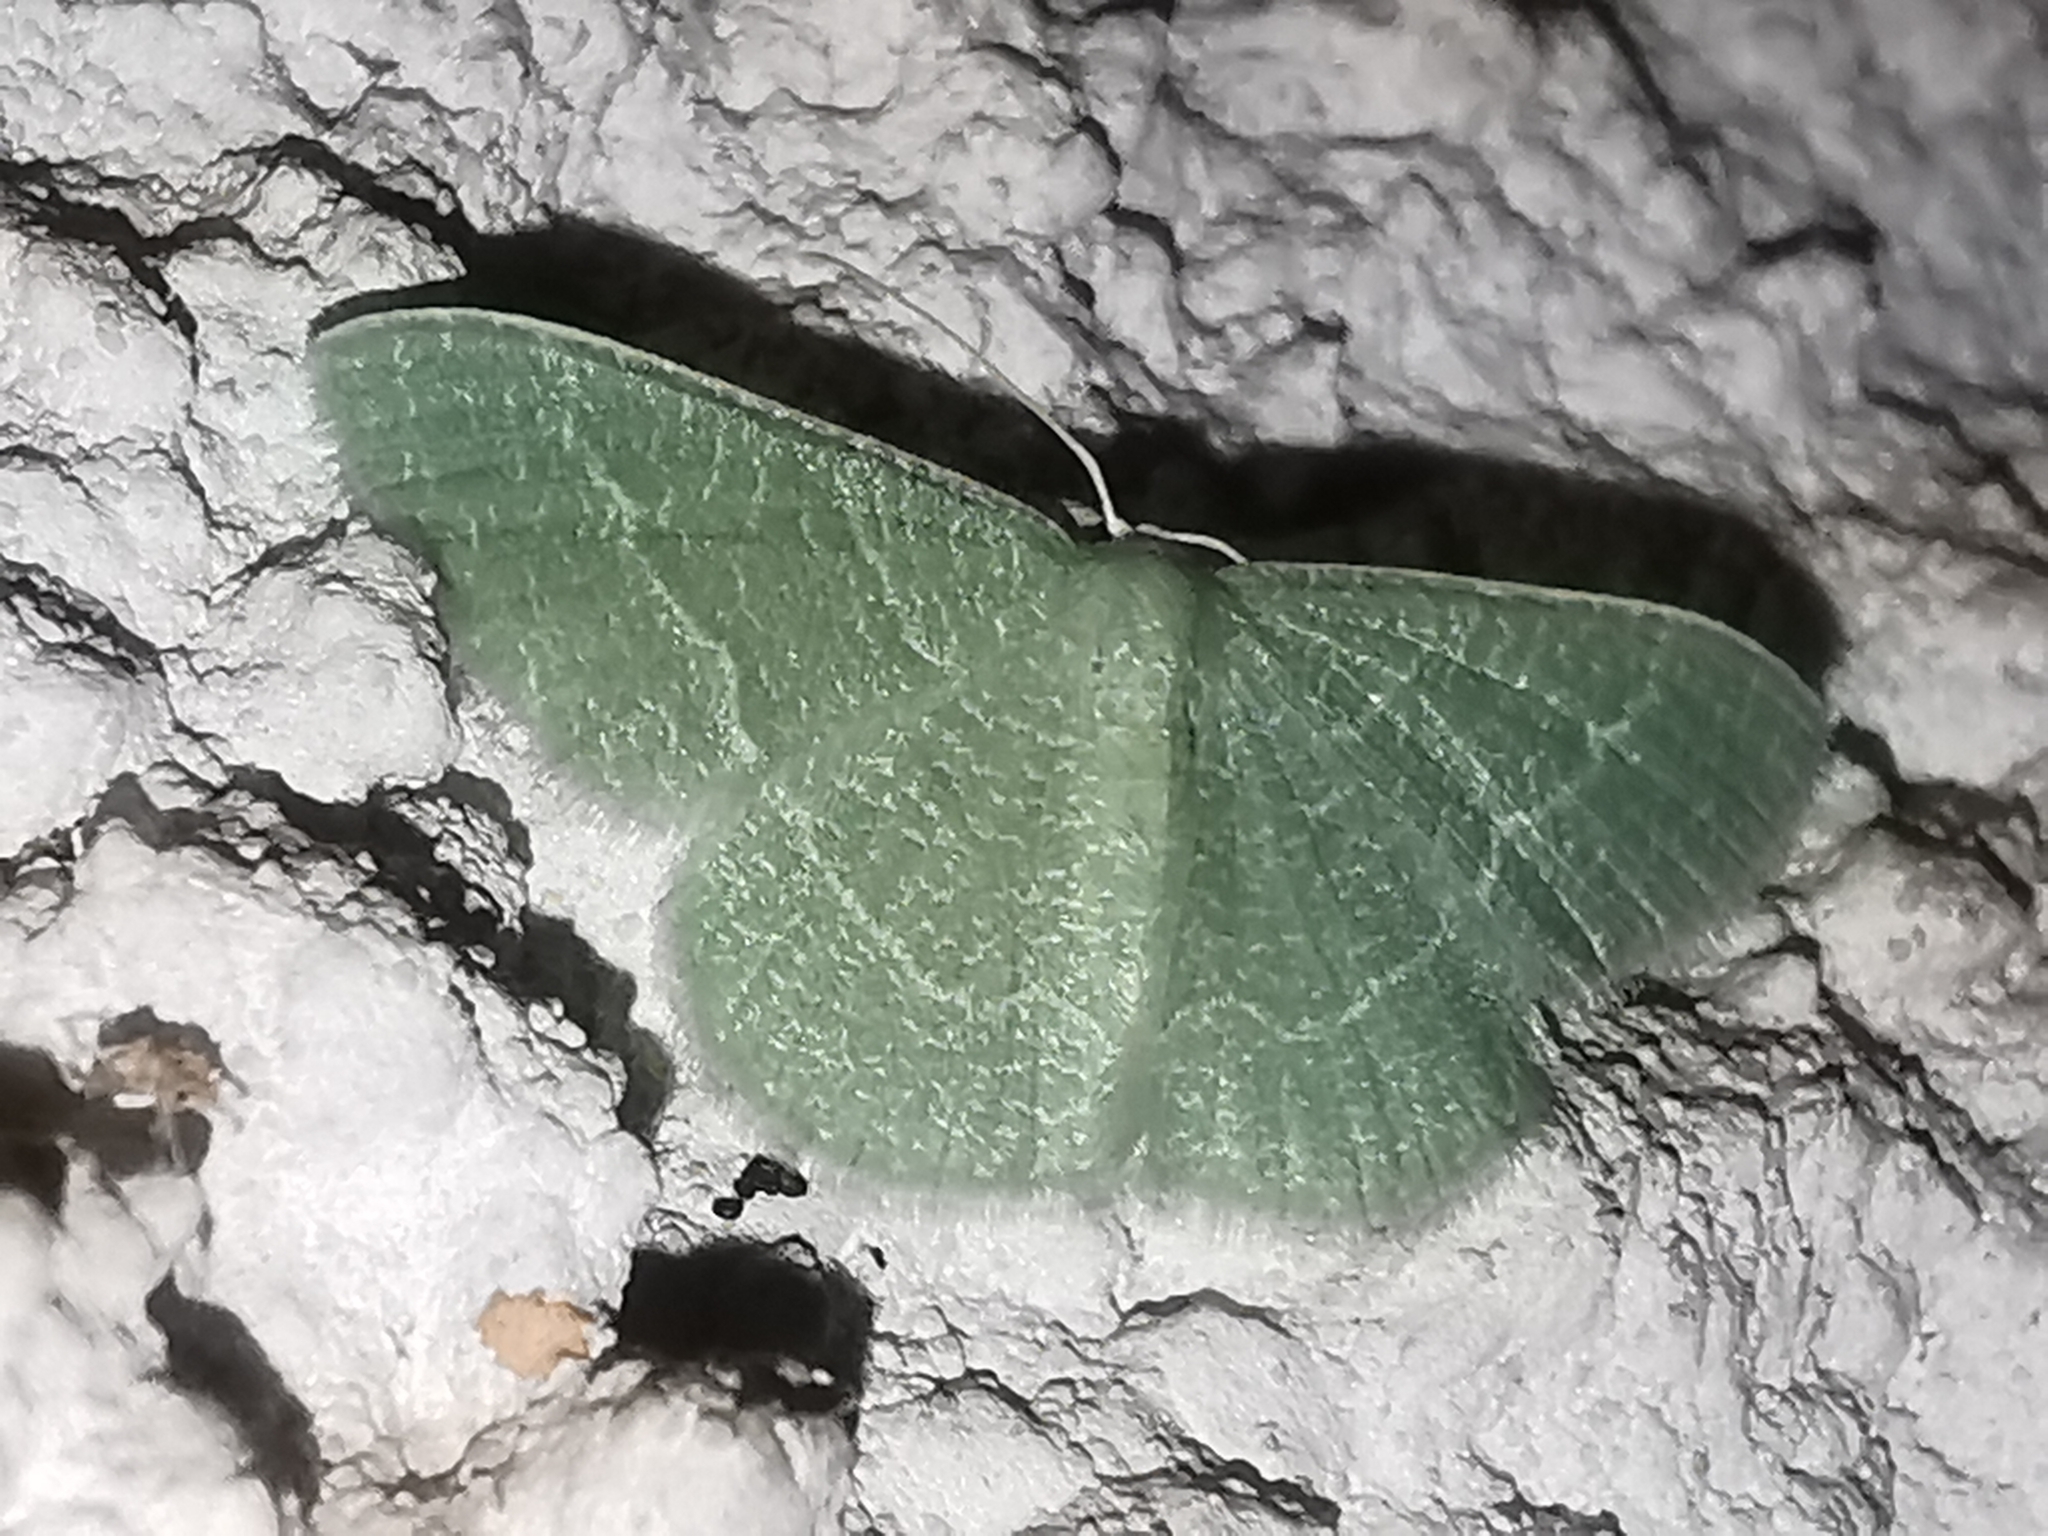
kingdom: Animalia
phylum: Arthropoda
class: Insecta
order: Lepidoptera
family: Geometridae
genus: Chlorissa
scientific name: Chlorissa etruscaria
